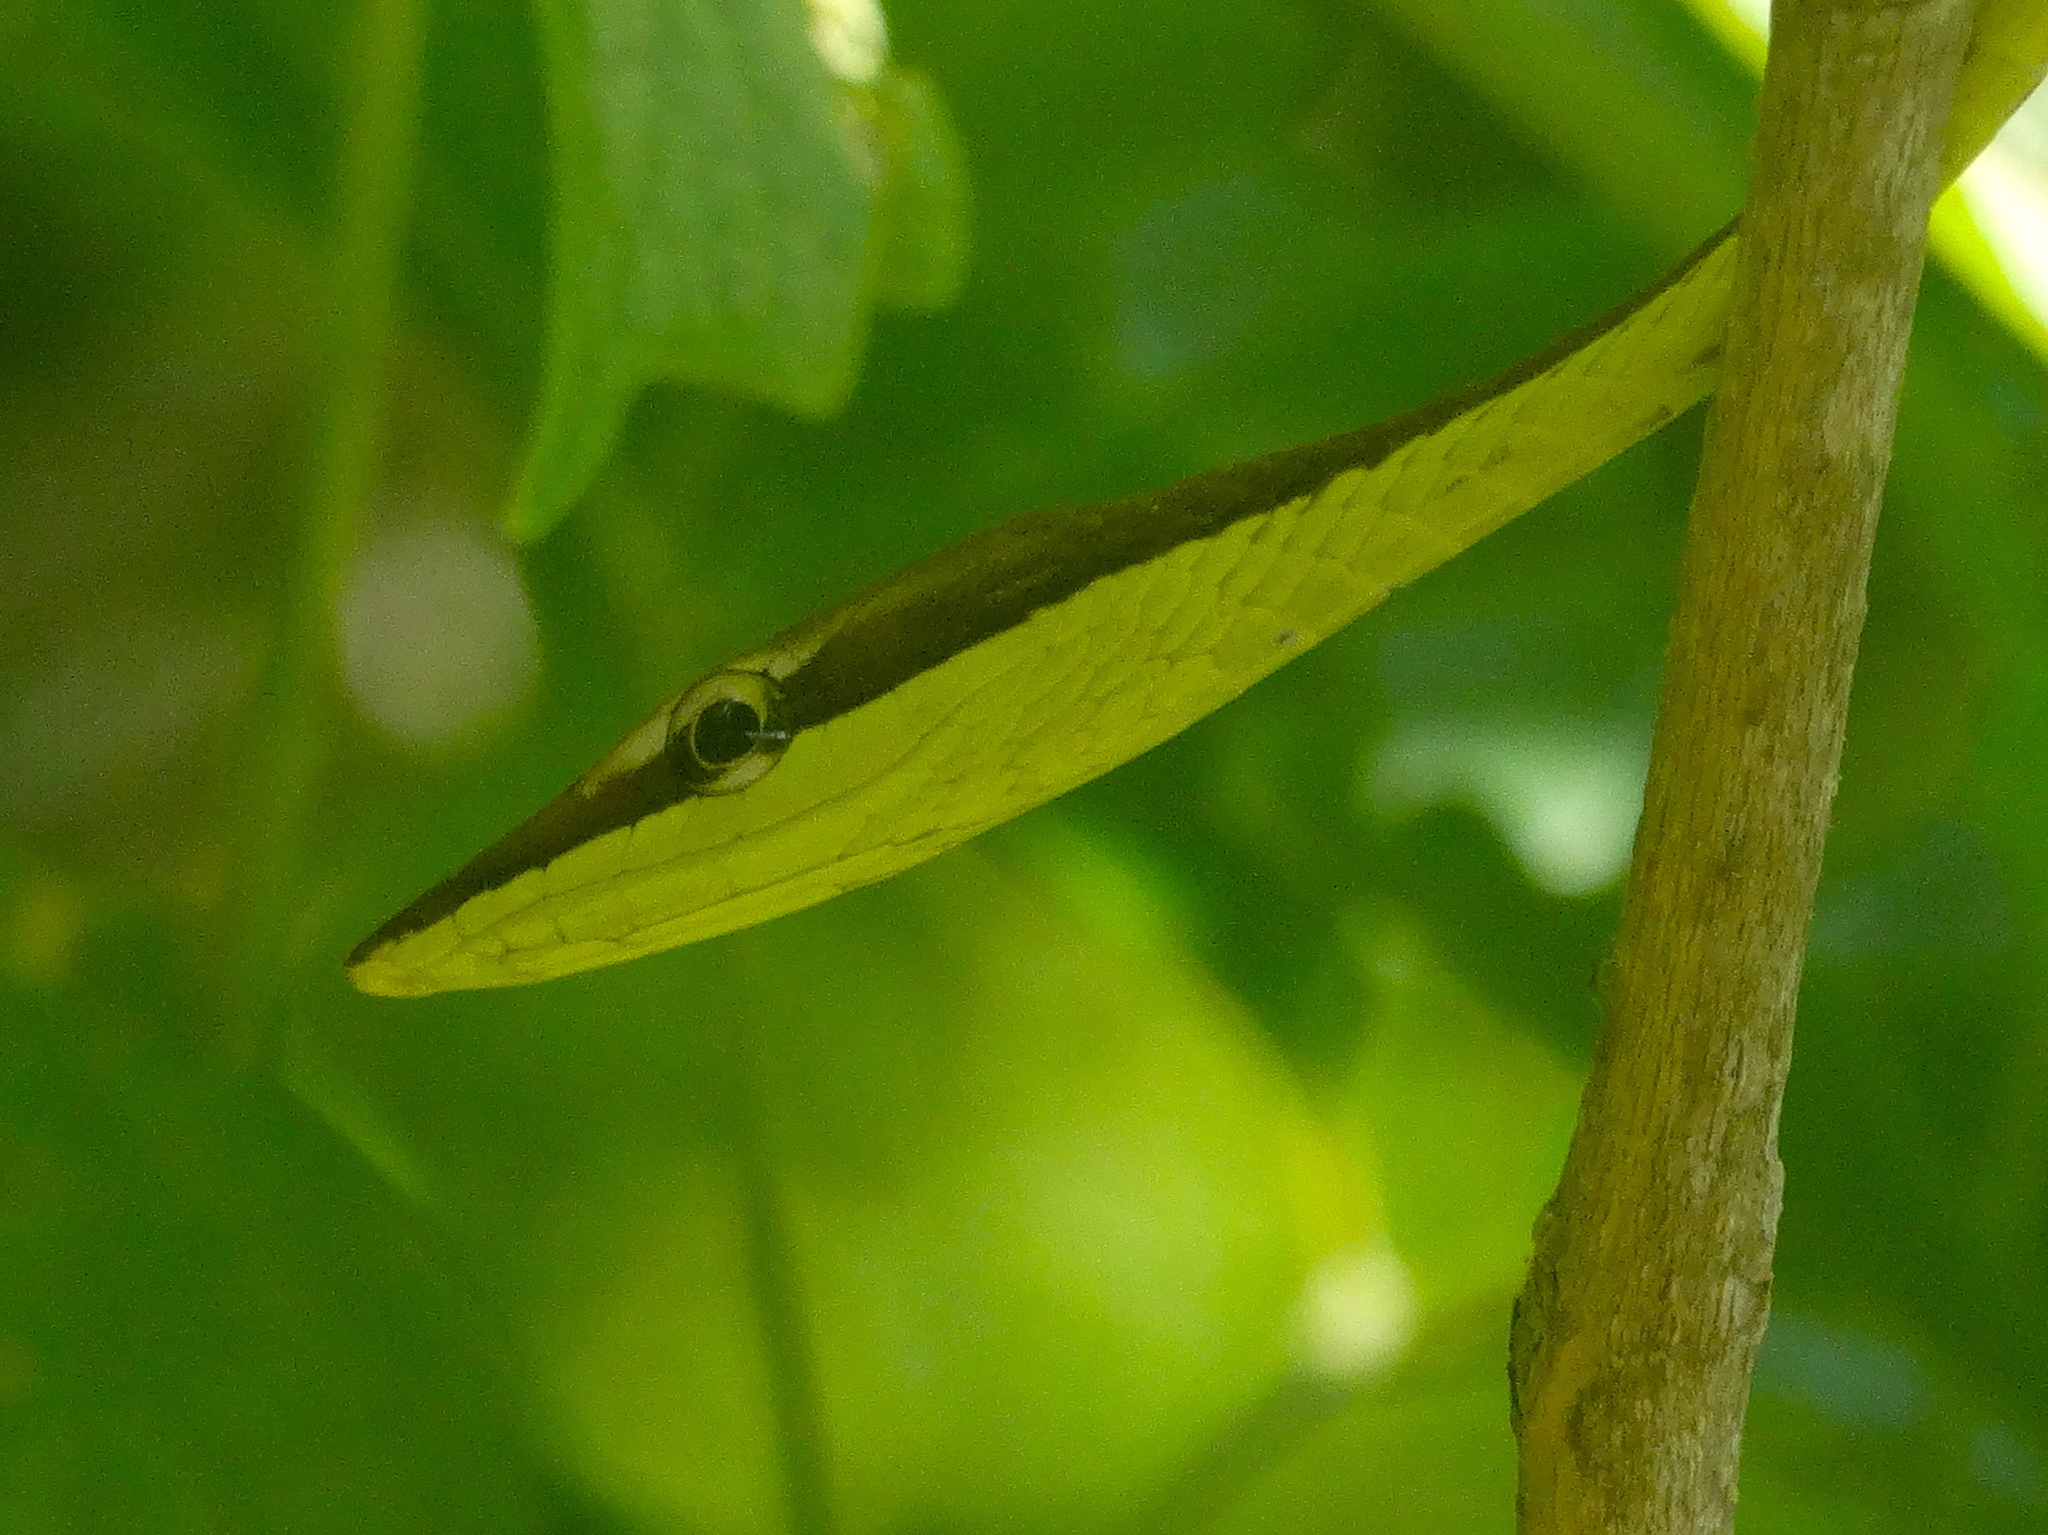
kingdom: Animalia
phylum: Chordata
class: Squamata
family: Colubridae
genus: Oxybelis
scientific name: Oxybelis microphthalmus
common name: Thrornscrub vine snake
